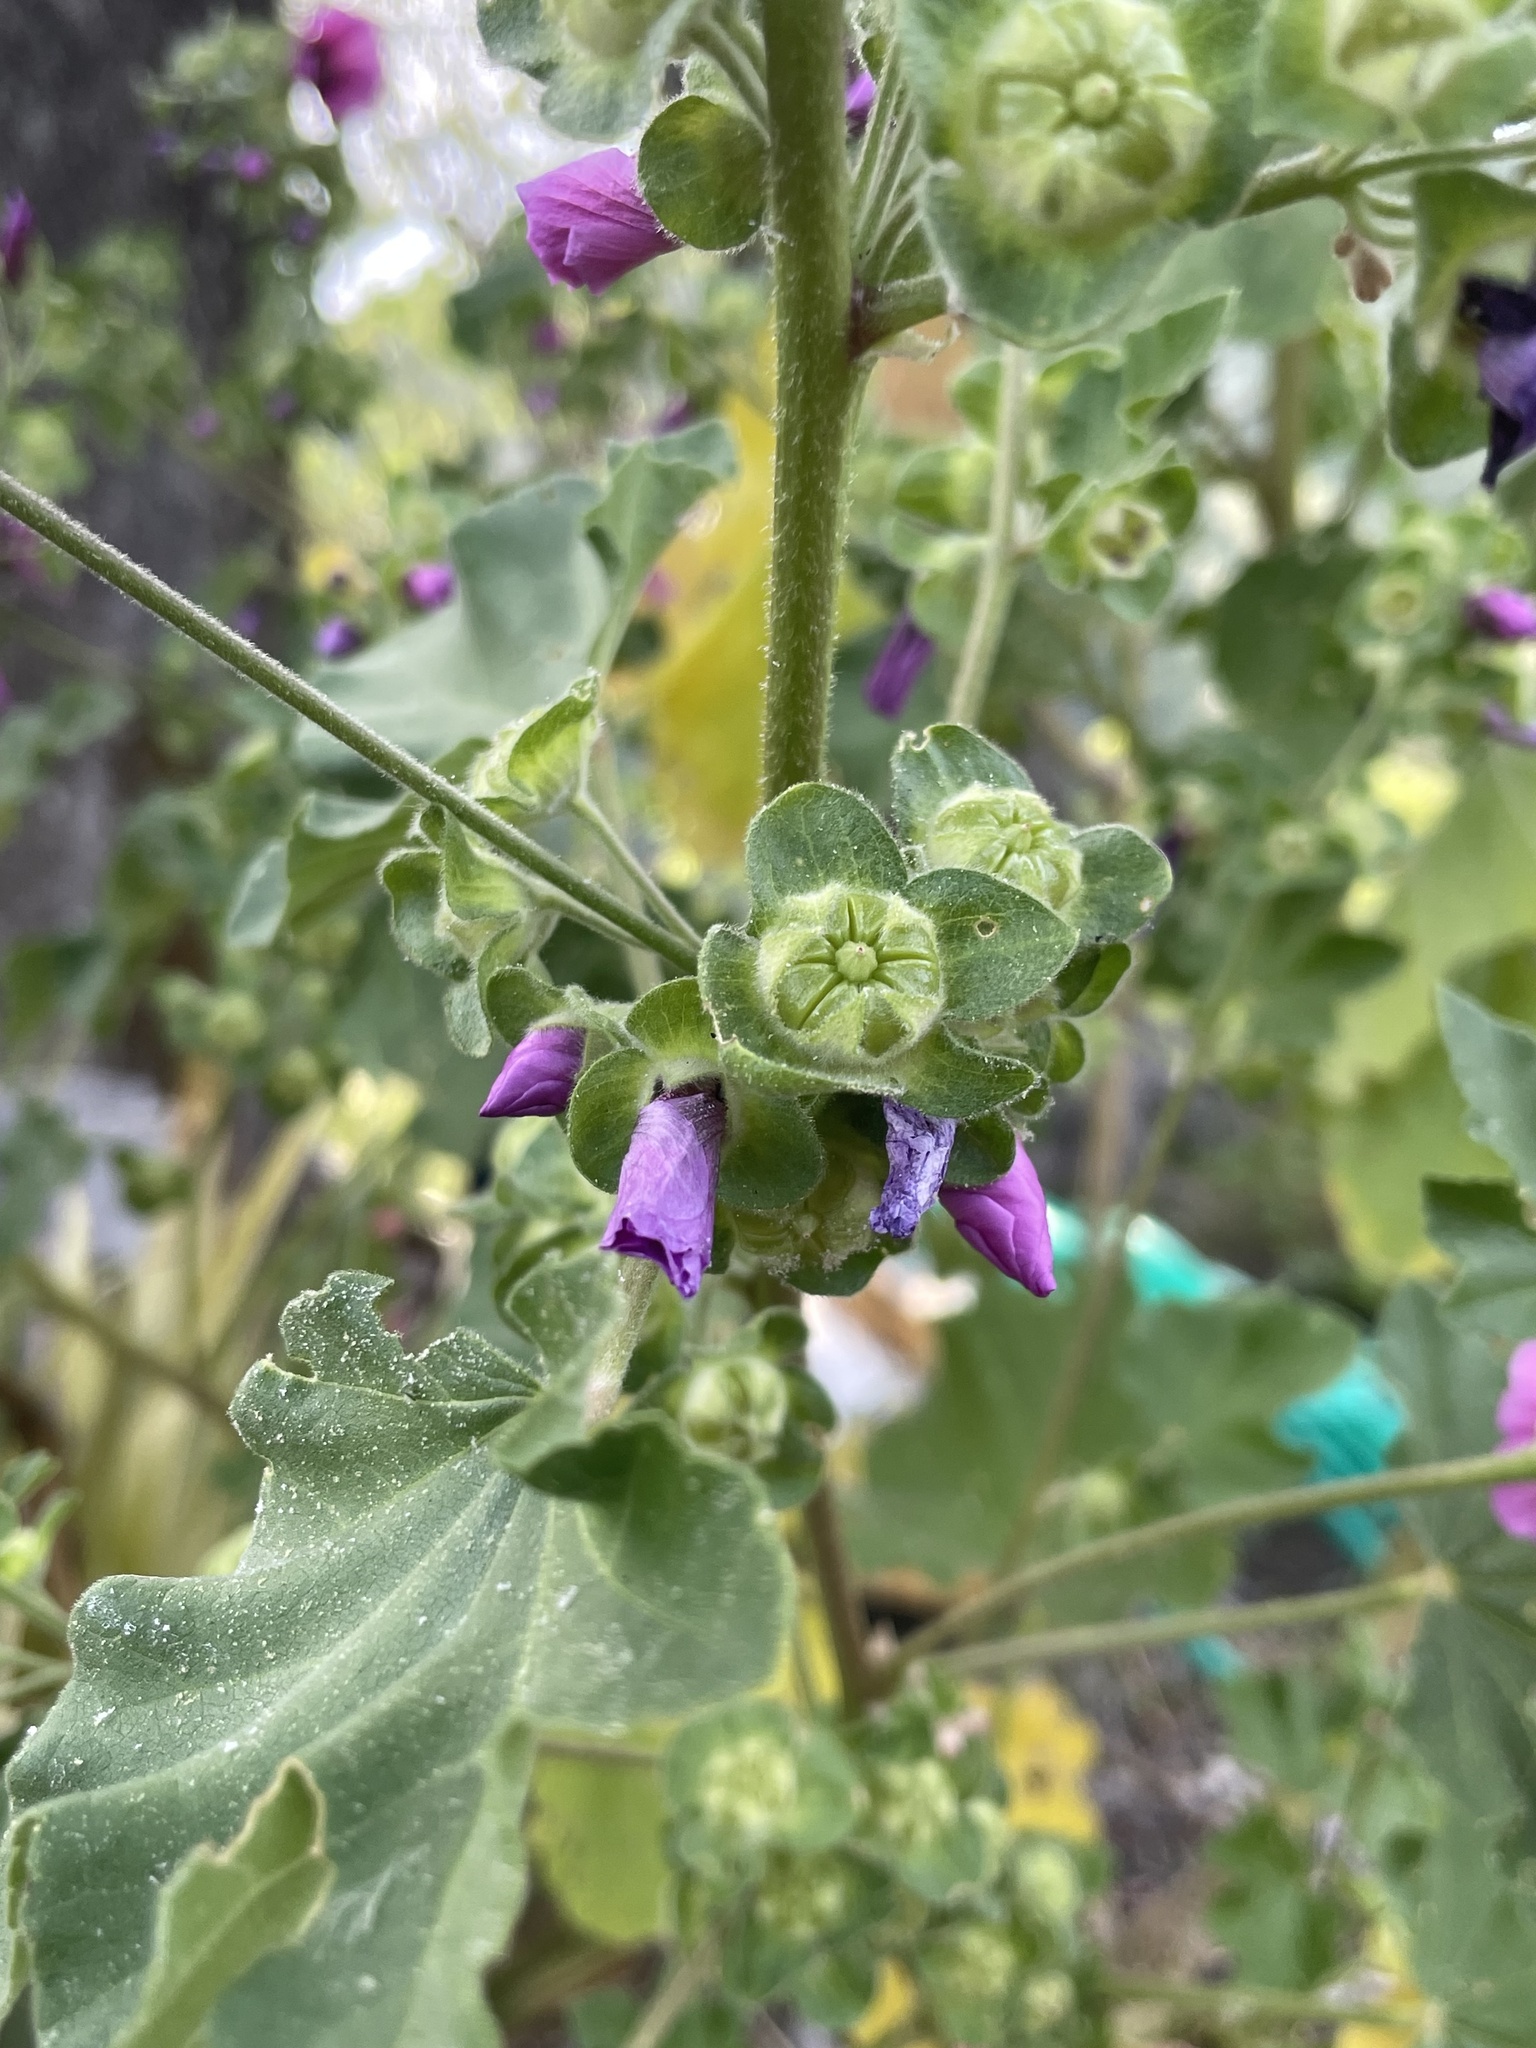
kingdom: Plantae
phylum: Tracheophyta
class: Magnoliopsida
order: Malvales
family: Malvaceae
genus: Malva
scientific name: Malva arborea
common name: Tree mallow
